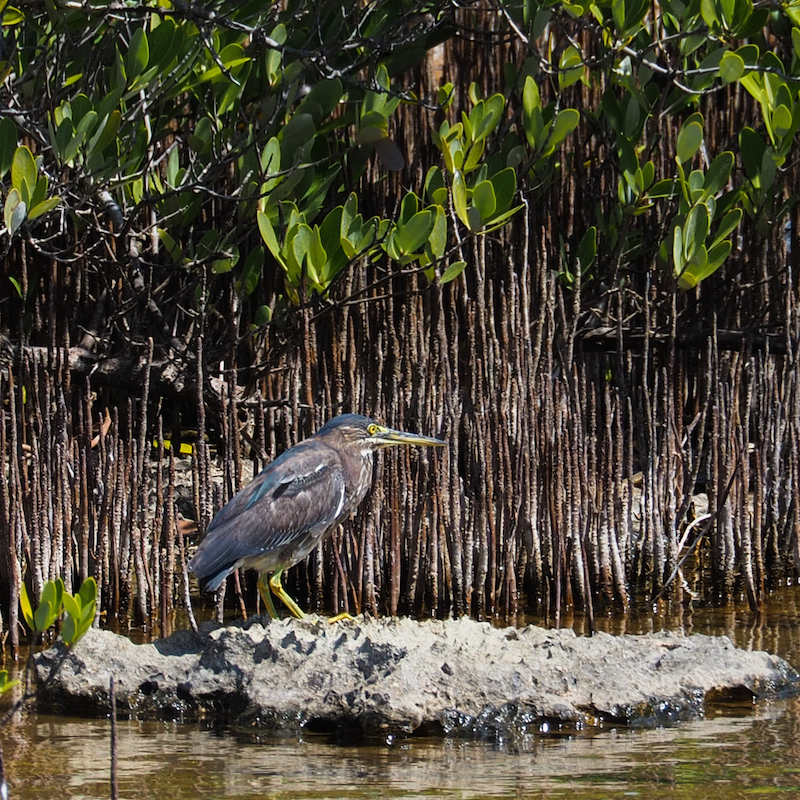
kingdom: Animalia
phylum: Chordata
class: Aves
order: Pelecaniformes
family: Ardeidae
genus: Butorides
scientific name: Butorides virescens
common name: Green heron
